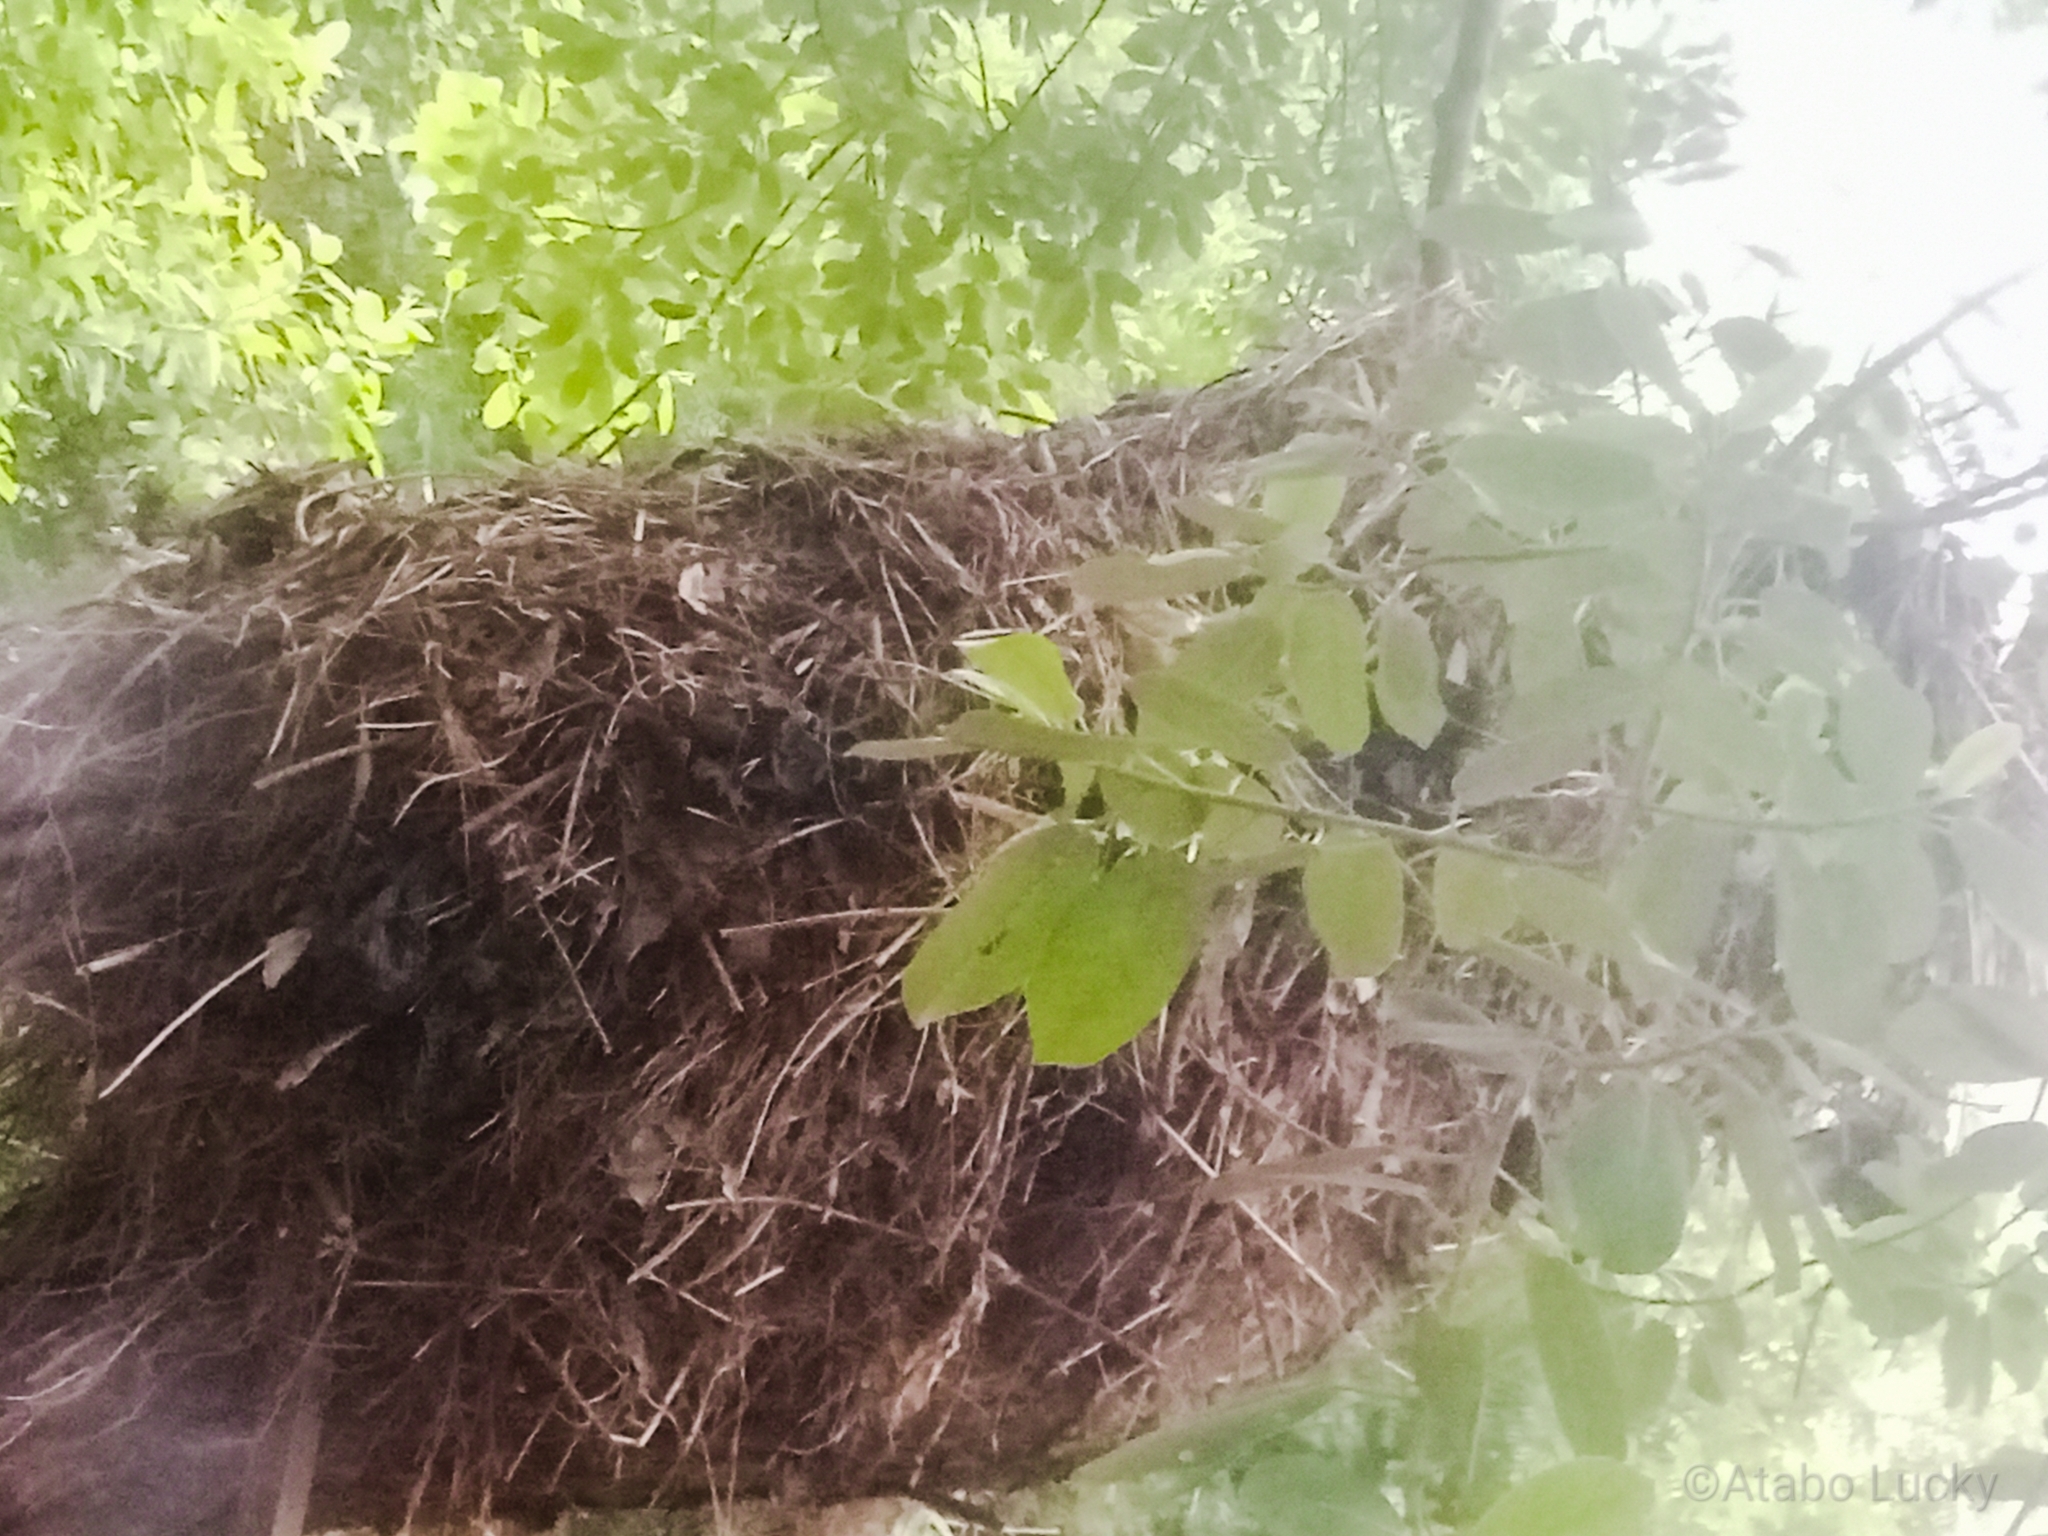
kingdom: Animalia
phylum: Chordata
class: Aves
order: Pelecaniformes
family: Scopidae
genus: Scopus
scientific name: Scopus umbretta
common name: Hamerkop
